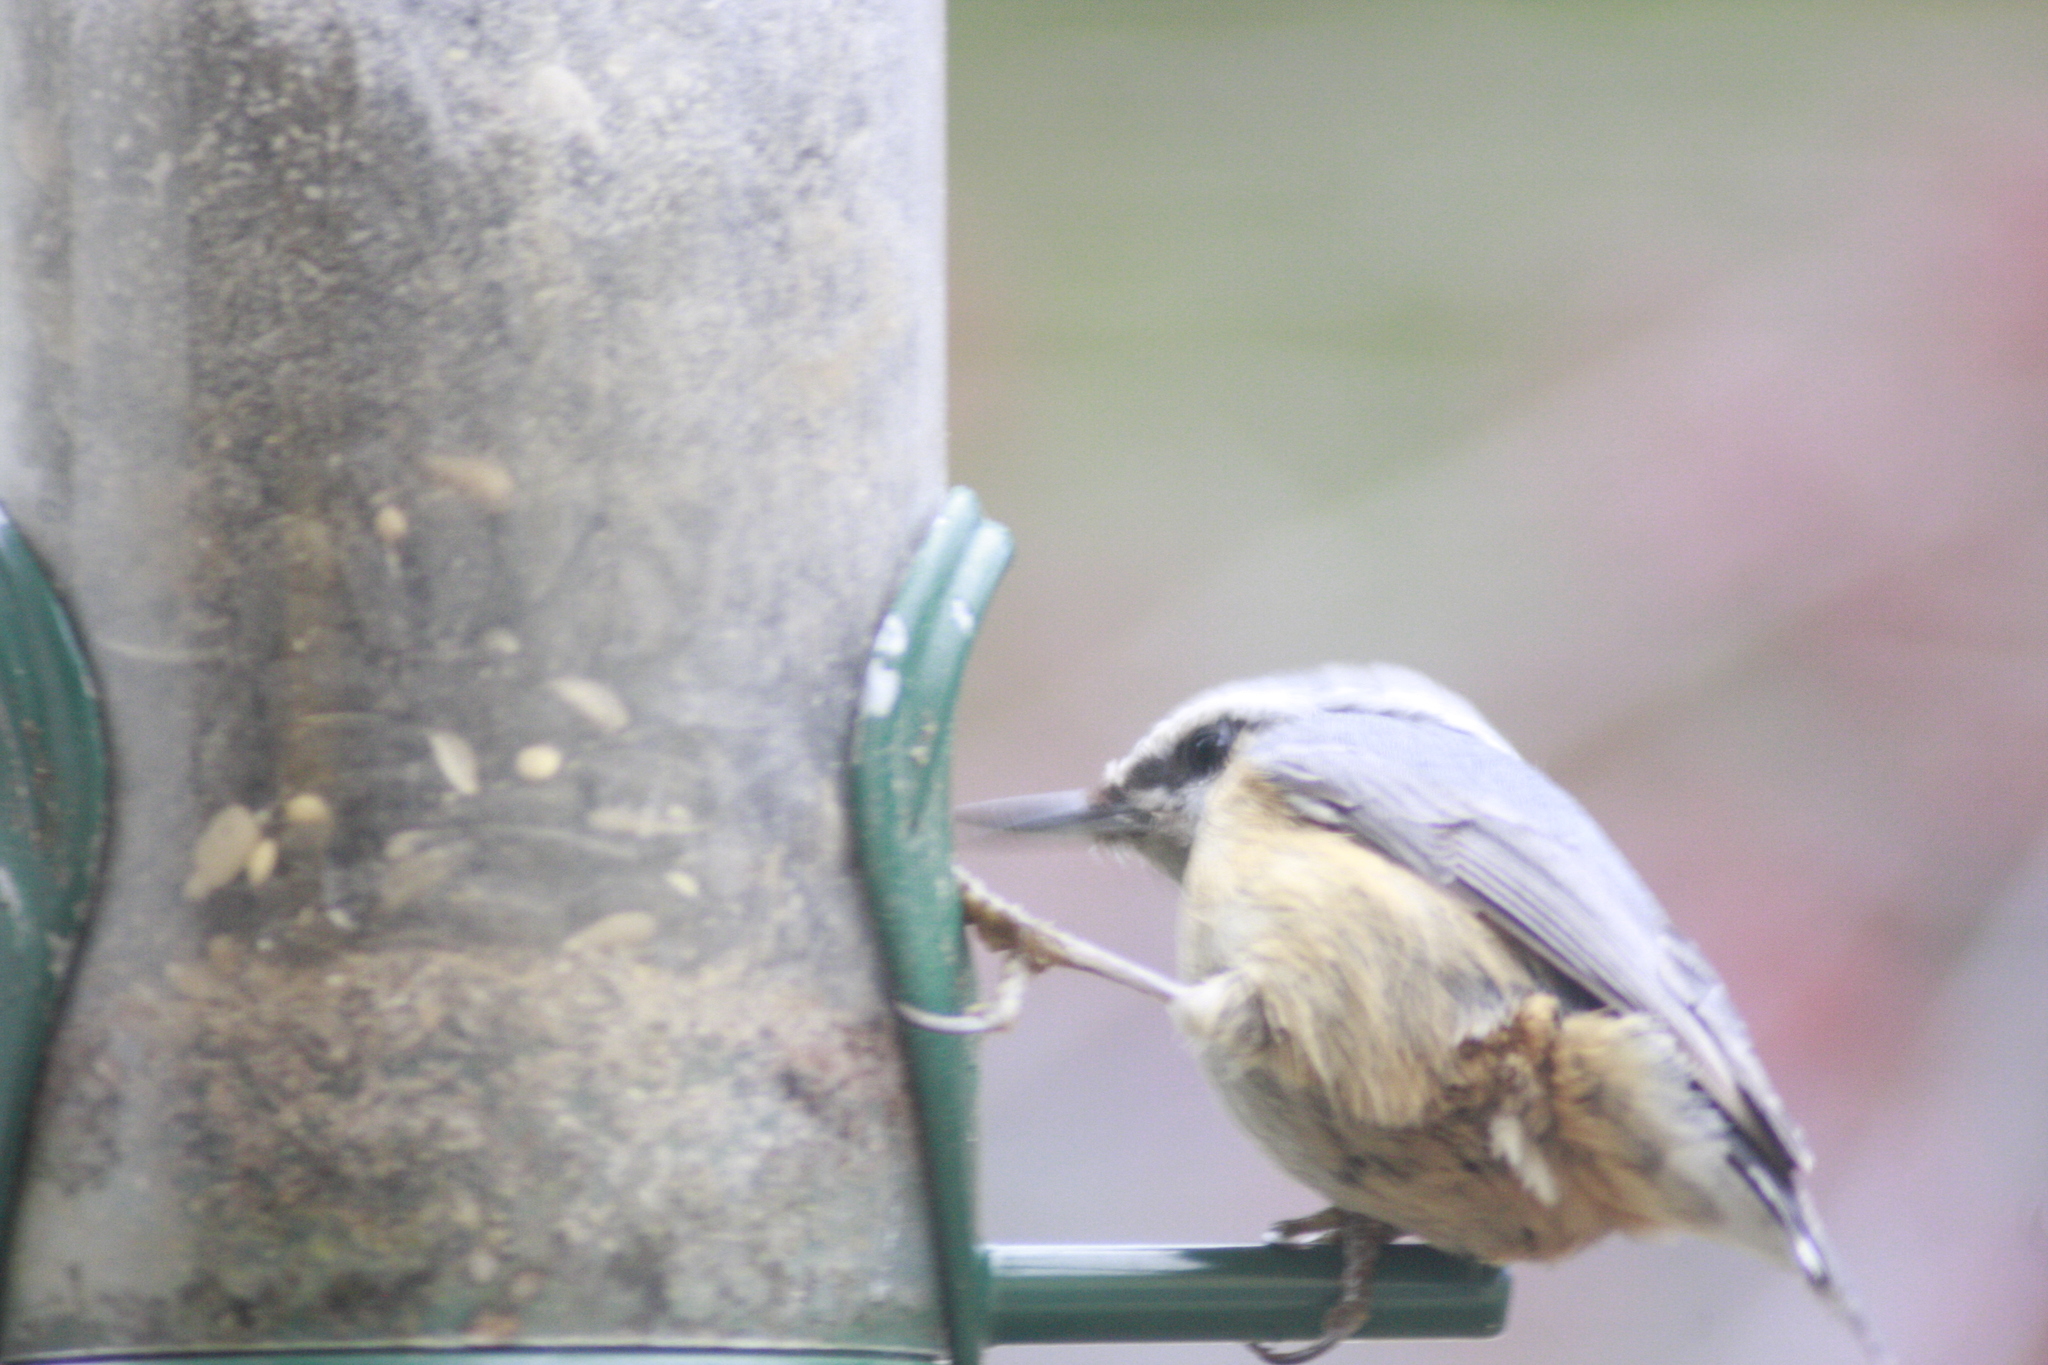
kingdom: Animalia
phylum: Chordata
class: Aves
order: Passeriformes
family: Sittidae
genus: Sitta
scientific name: Sitta canadensis
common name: Red-breasted nuthatch
